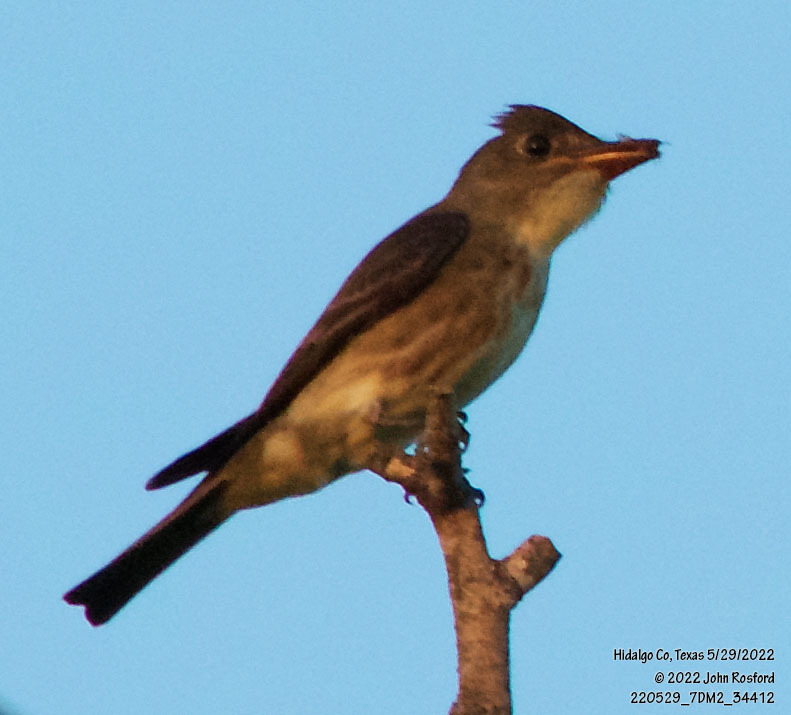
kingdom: Animalia
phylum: Chordata
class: Aves
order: Passeriformes
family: Tyrannidae
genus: Contopus
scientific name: Contopus cooperi
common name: Olive-sided flycatcher
